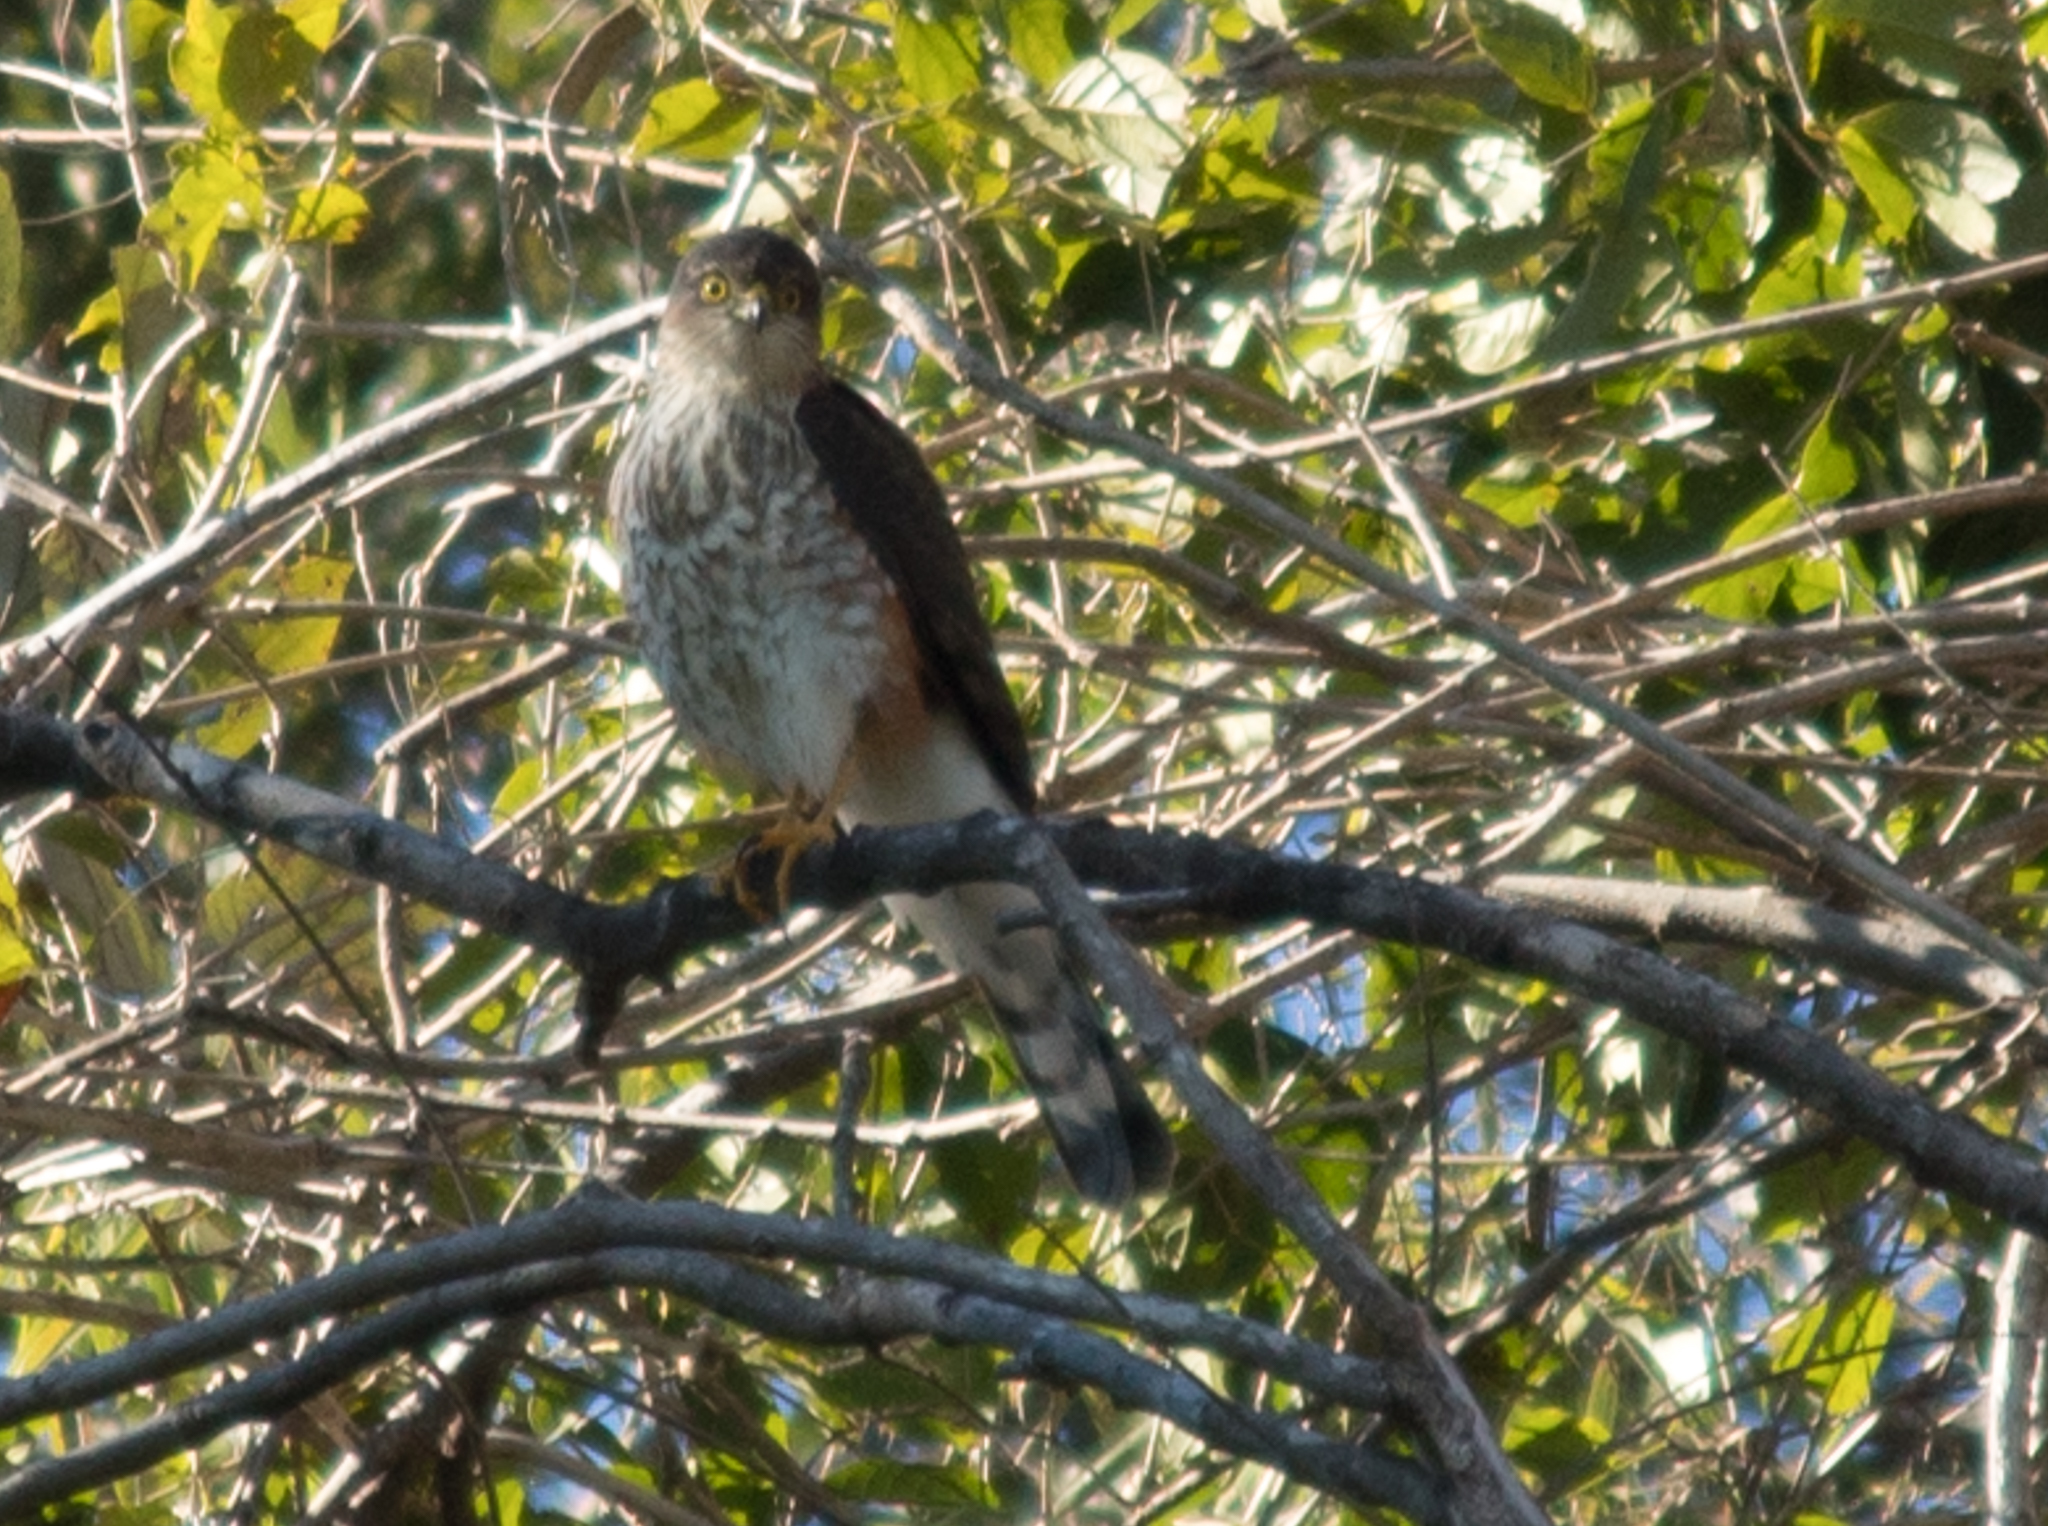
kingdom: Animalia
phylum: Chordata
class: Aves
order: Accipitriformes
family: Accipitridae
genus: Accipiter
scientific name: Accipiter striatus
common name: Sharp-shinned hawk
